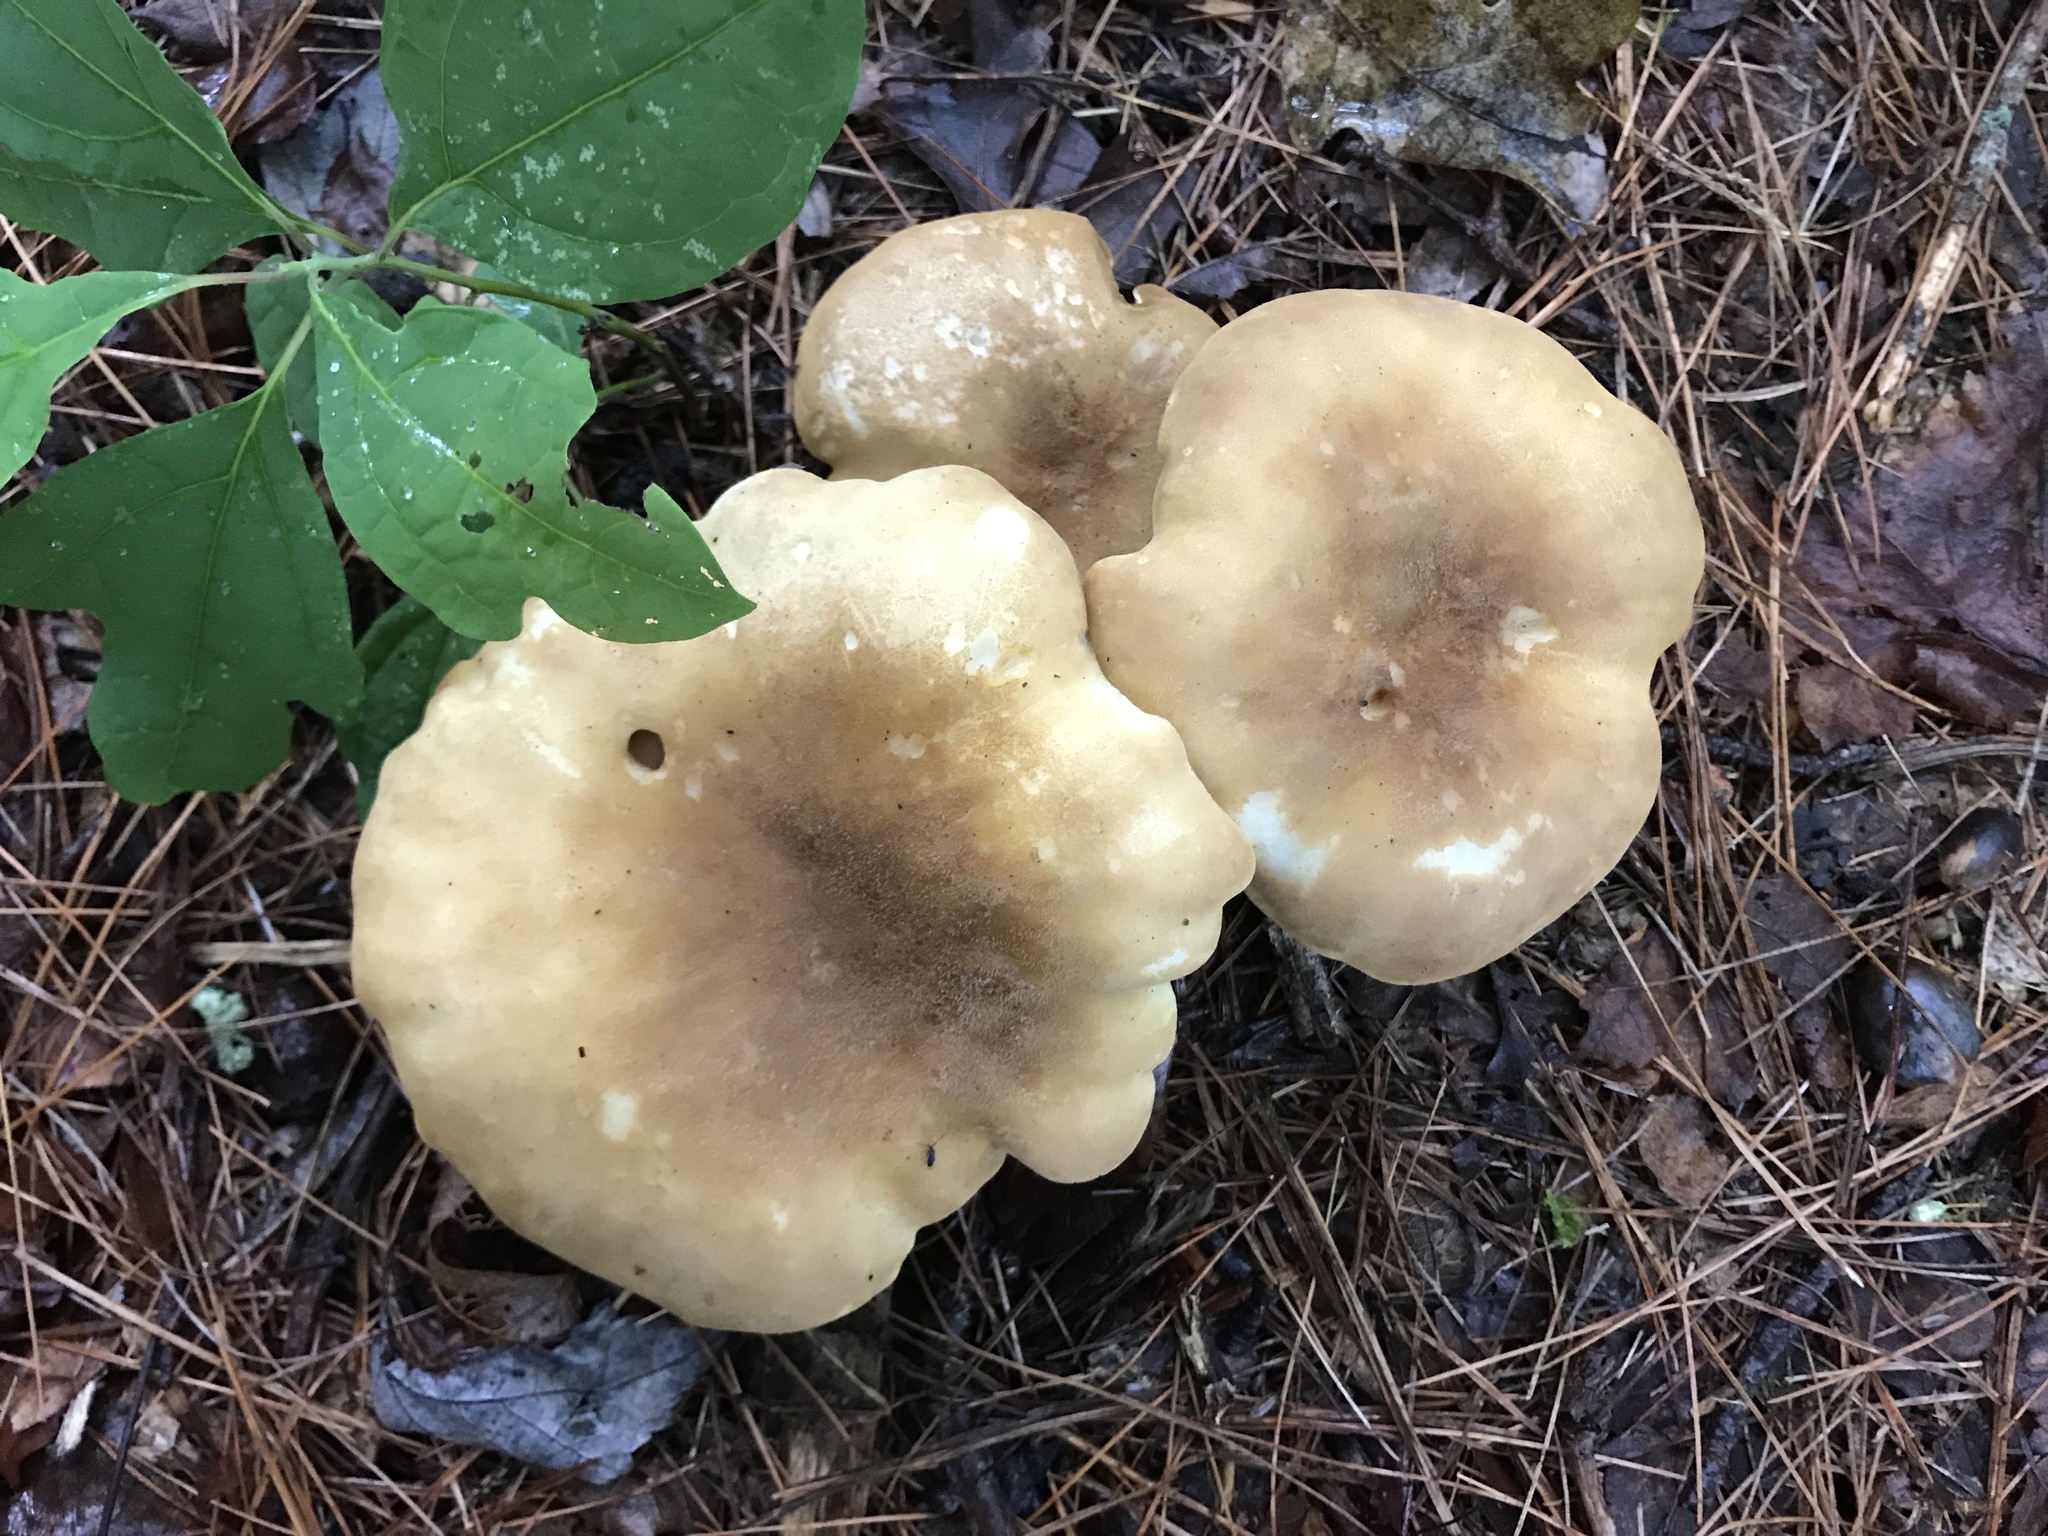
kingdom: Fungi
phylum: Basidiomycota
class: Agaricomycetes
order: Boletales
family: Tapinellaceae
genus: Tapinella
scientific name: Tapinella atrotomentosa
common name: Velvet rollrim
